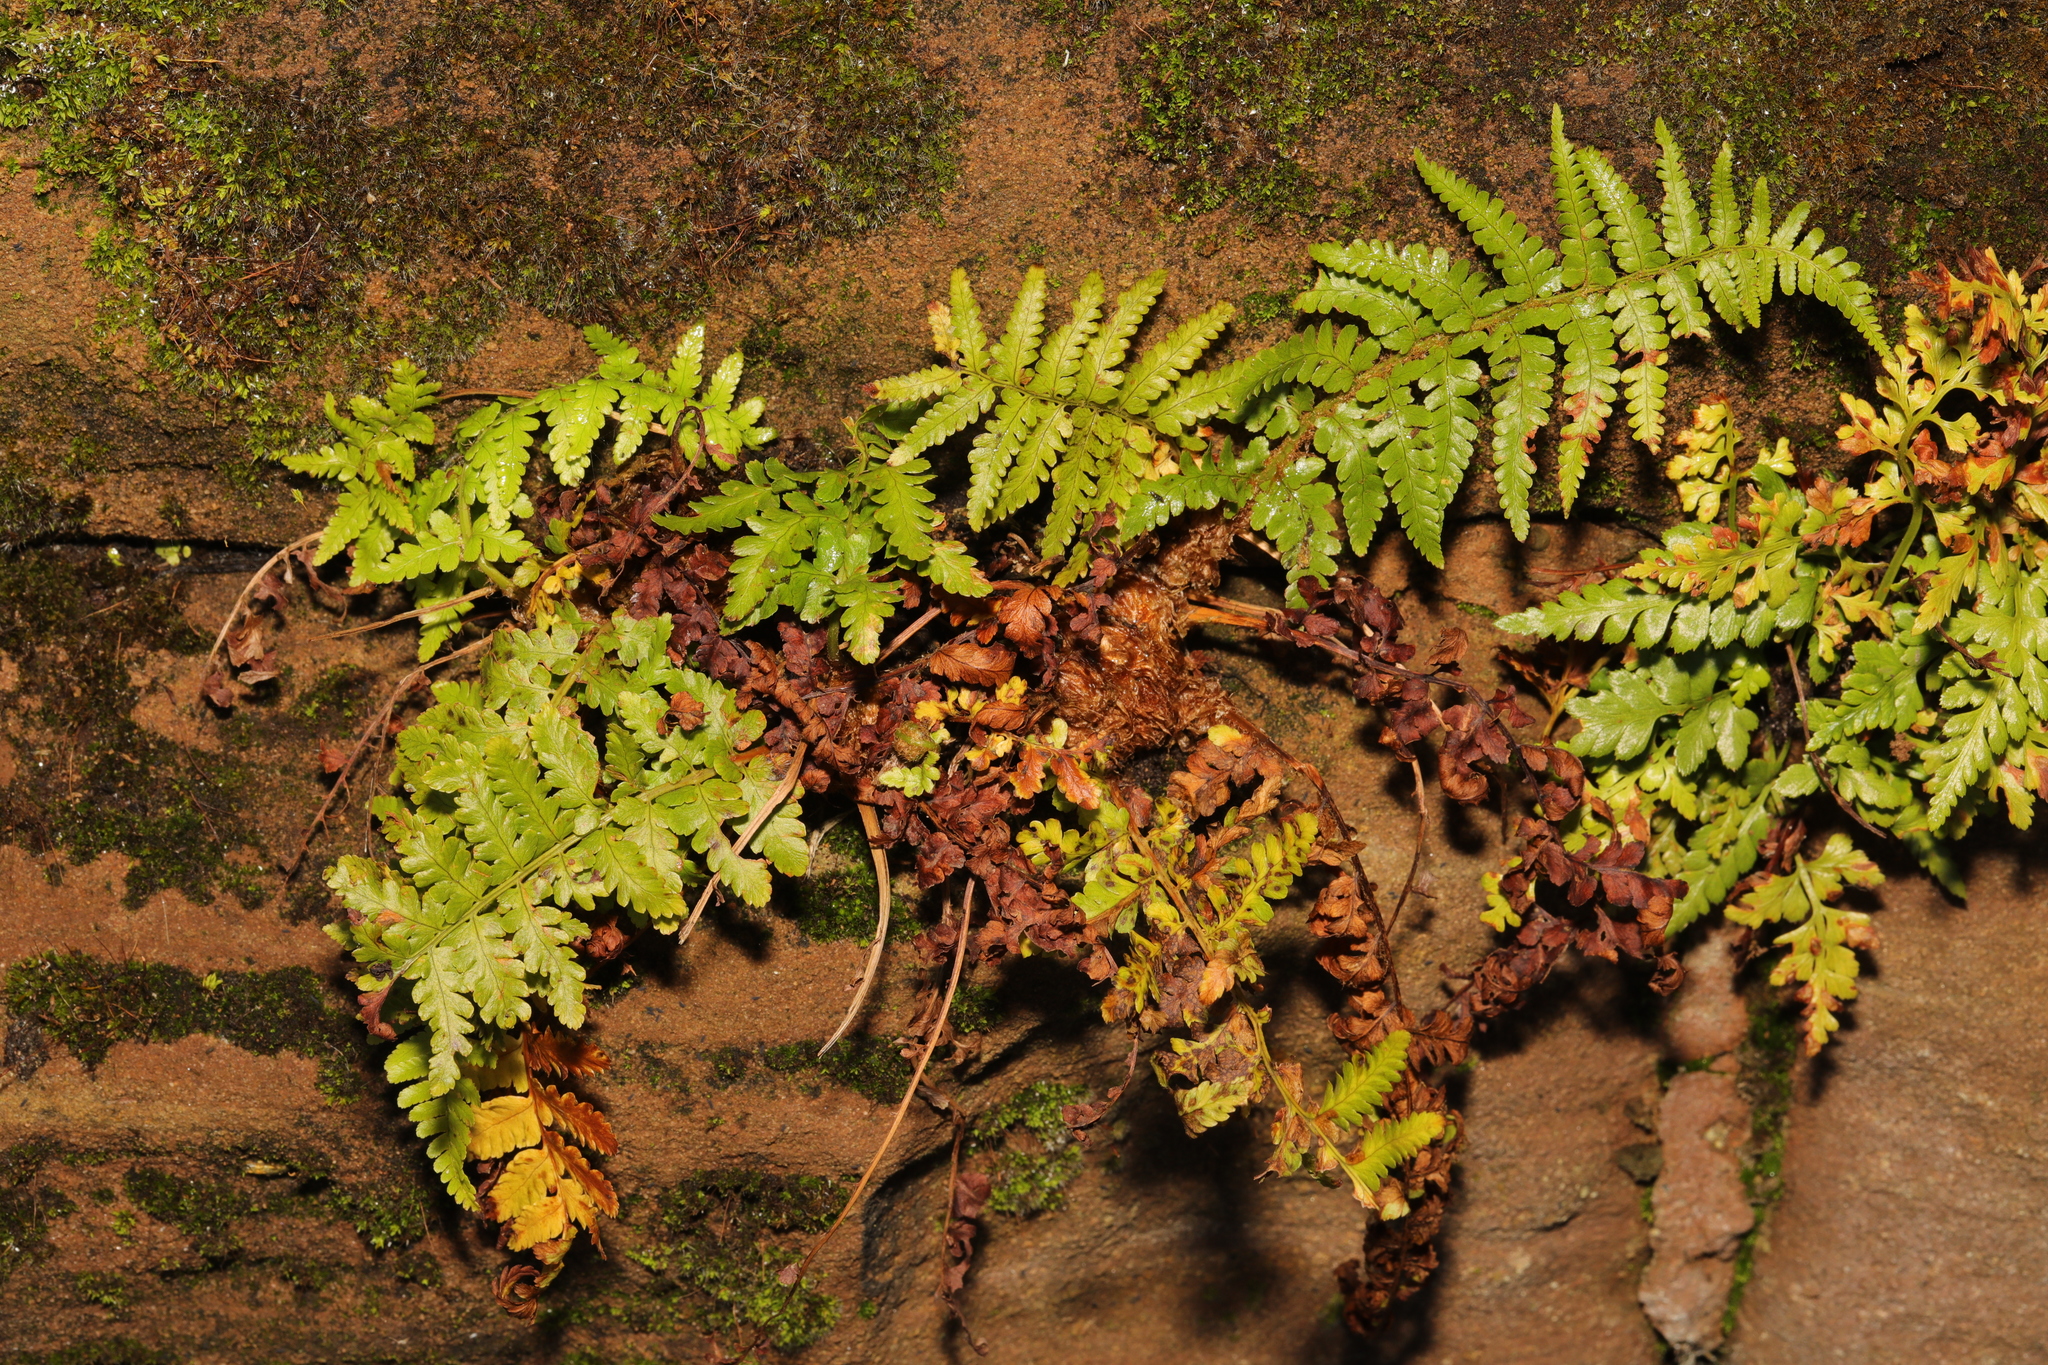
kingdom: Plantae
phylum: Tracheophyta
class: Polypodiopsida
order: Polypodiales
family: Aspleniaceae
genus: Asplenium
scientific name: Asplenium adiantum-nigrum
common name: Black spleenwort
